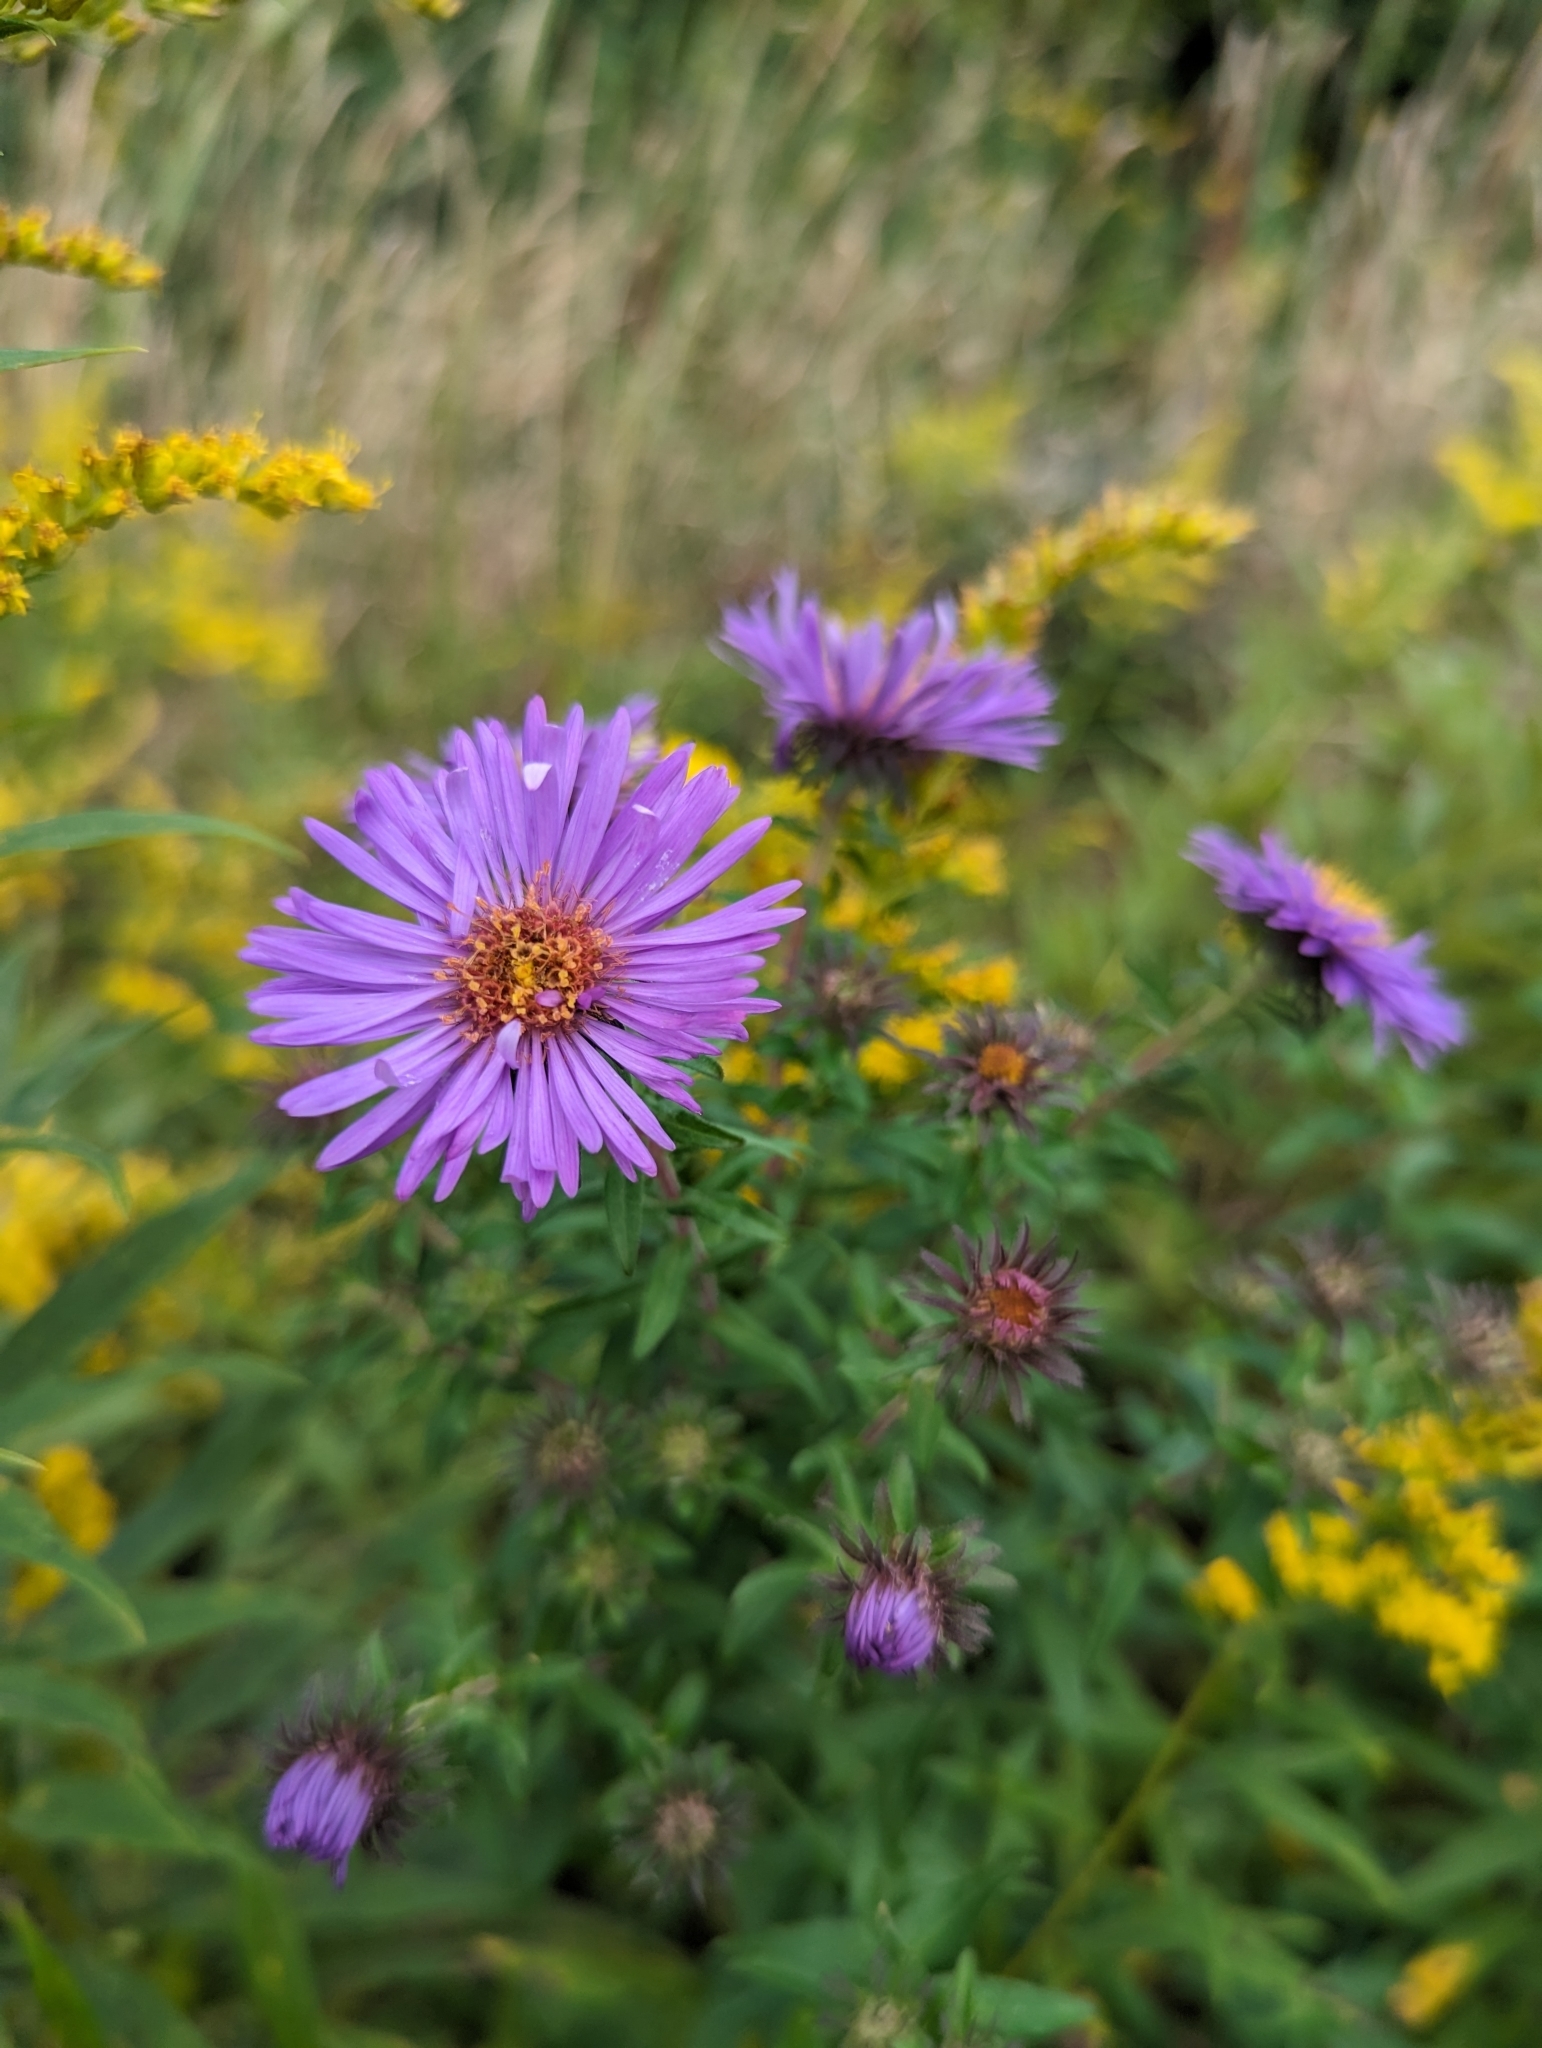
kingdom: Plantae
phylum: Tracheophyta
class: Magnoliopsida
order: Asterales
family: Asteraceae
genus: Symphyotrichum
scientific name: Symphyotrichum novae-angliae
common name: Michaelmas daisy
